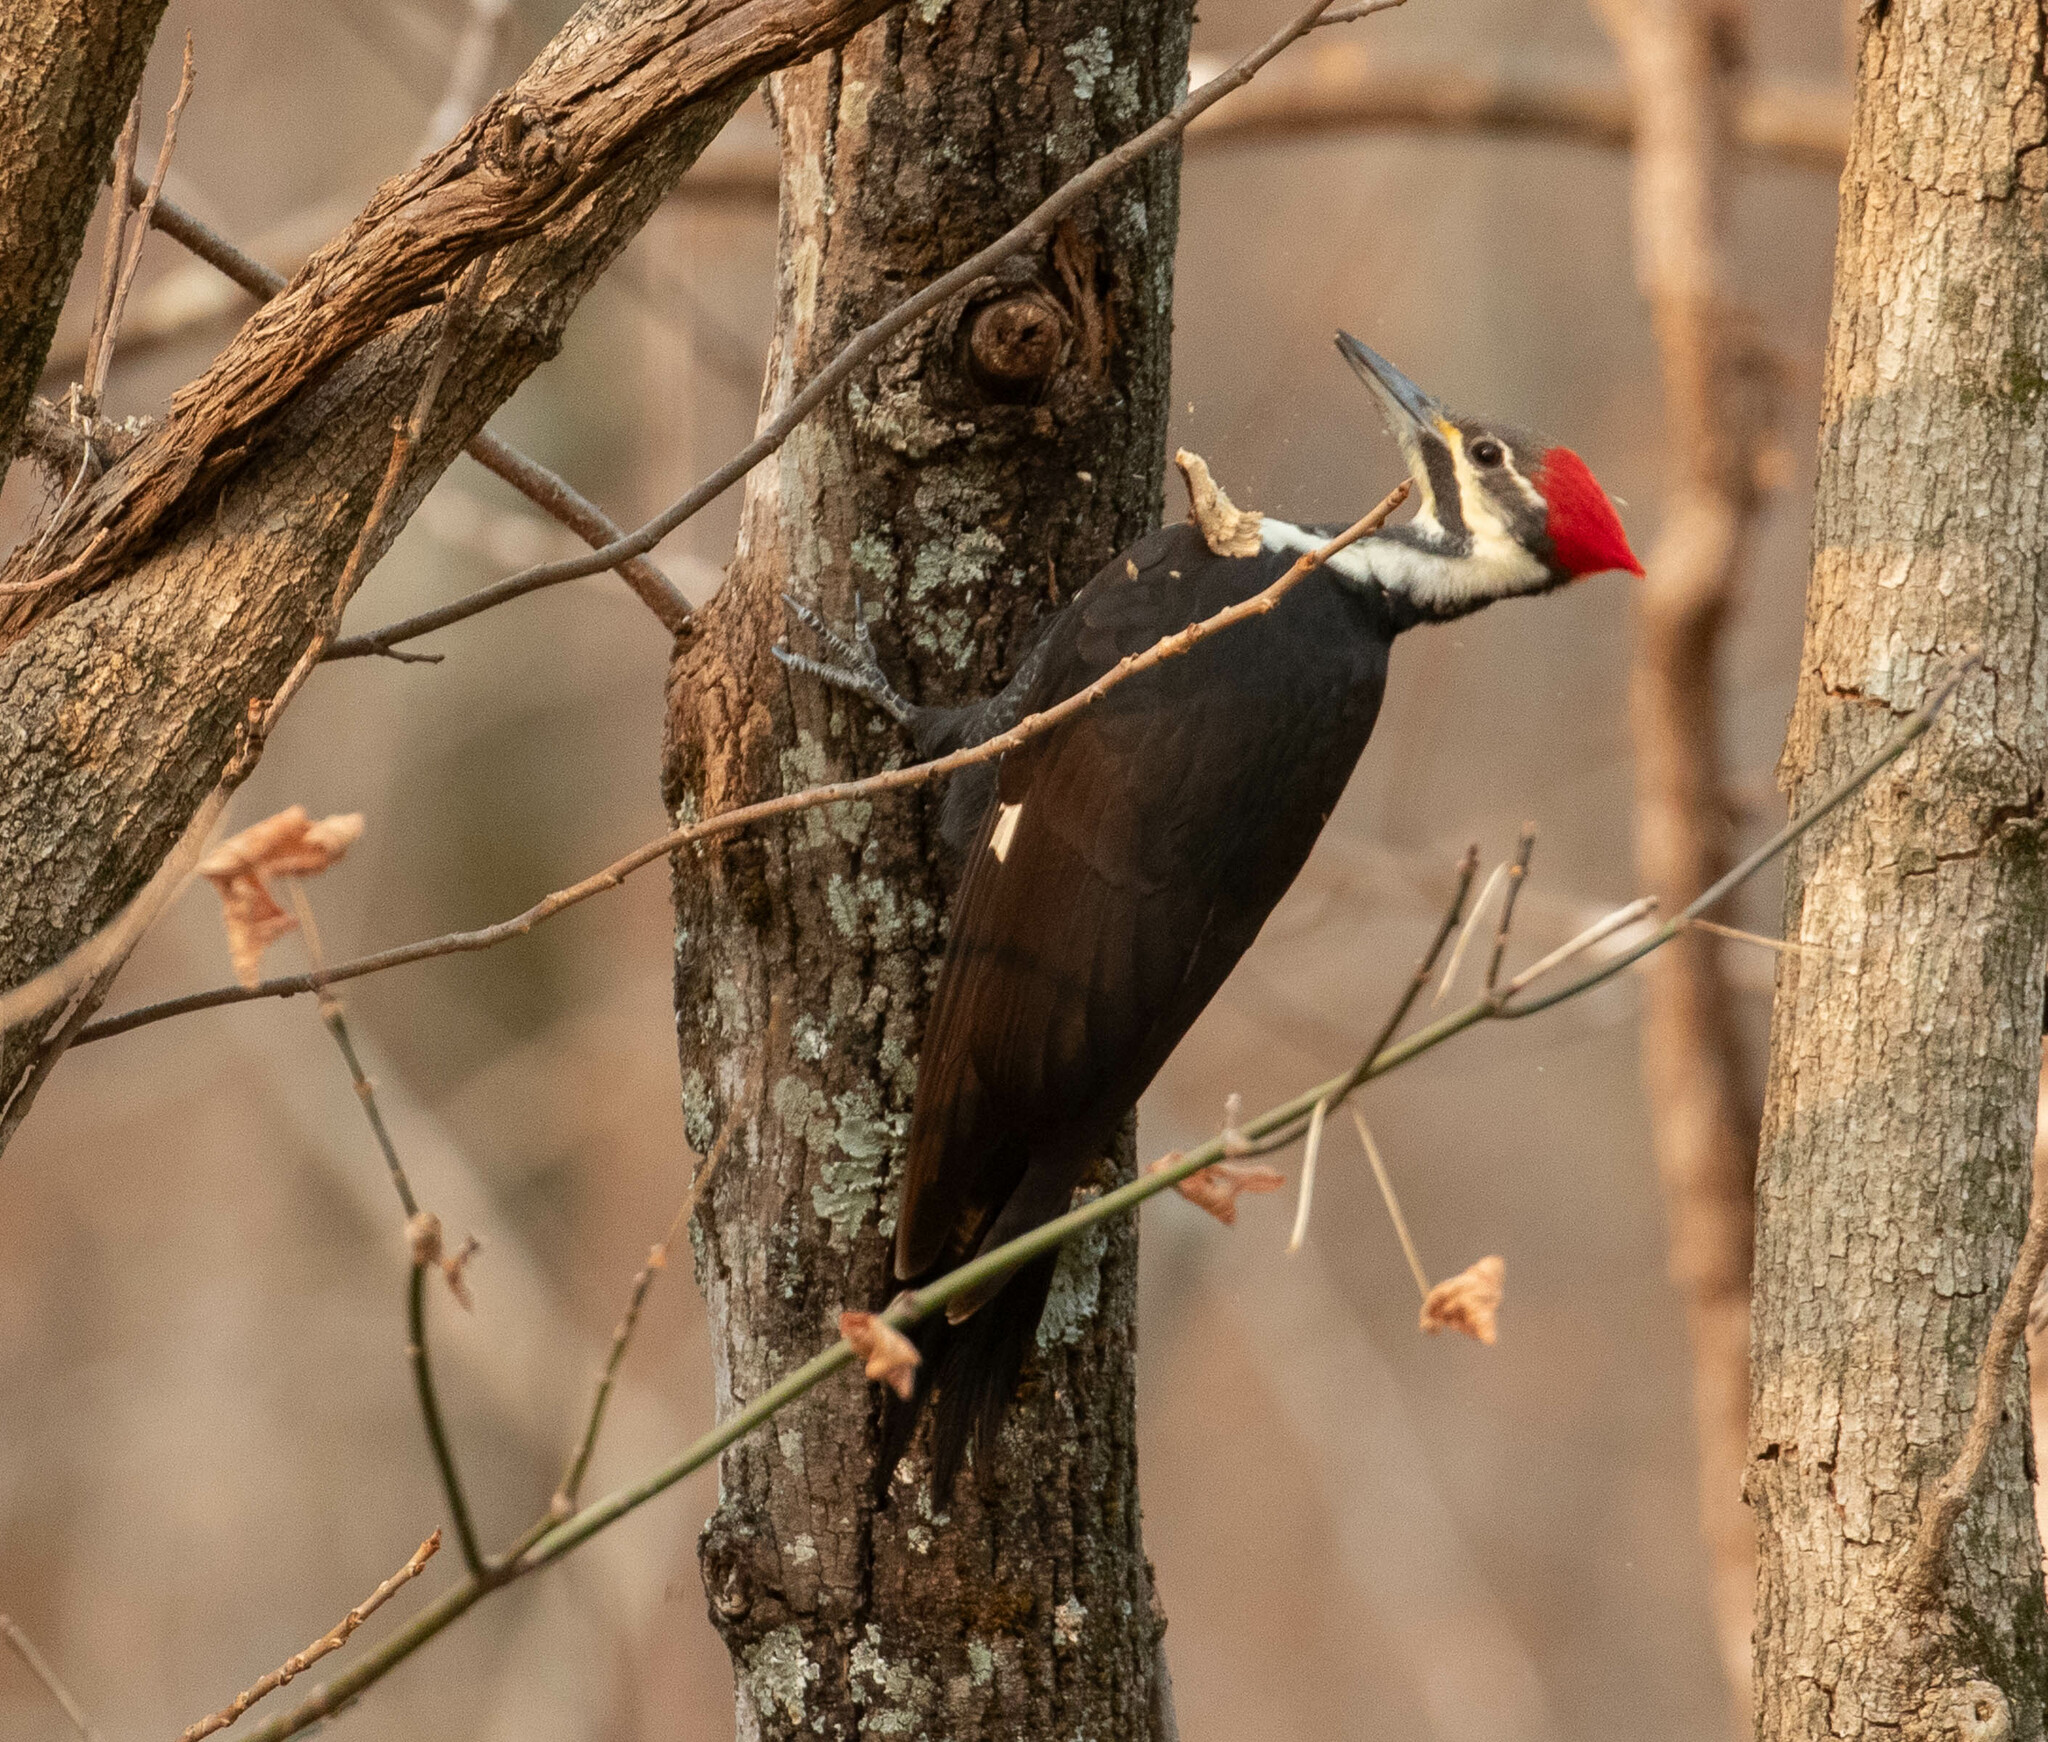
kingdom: Animalia
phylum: Chordata
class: Aves
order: Piciformes
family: Picidae
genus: Dryocopus
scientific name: Dryocopus pileatus
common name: Pileated woodpecker
